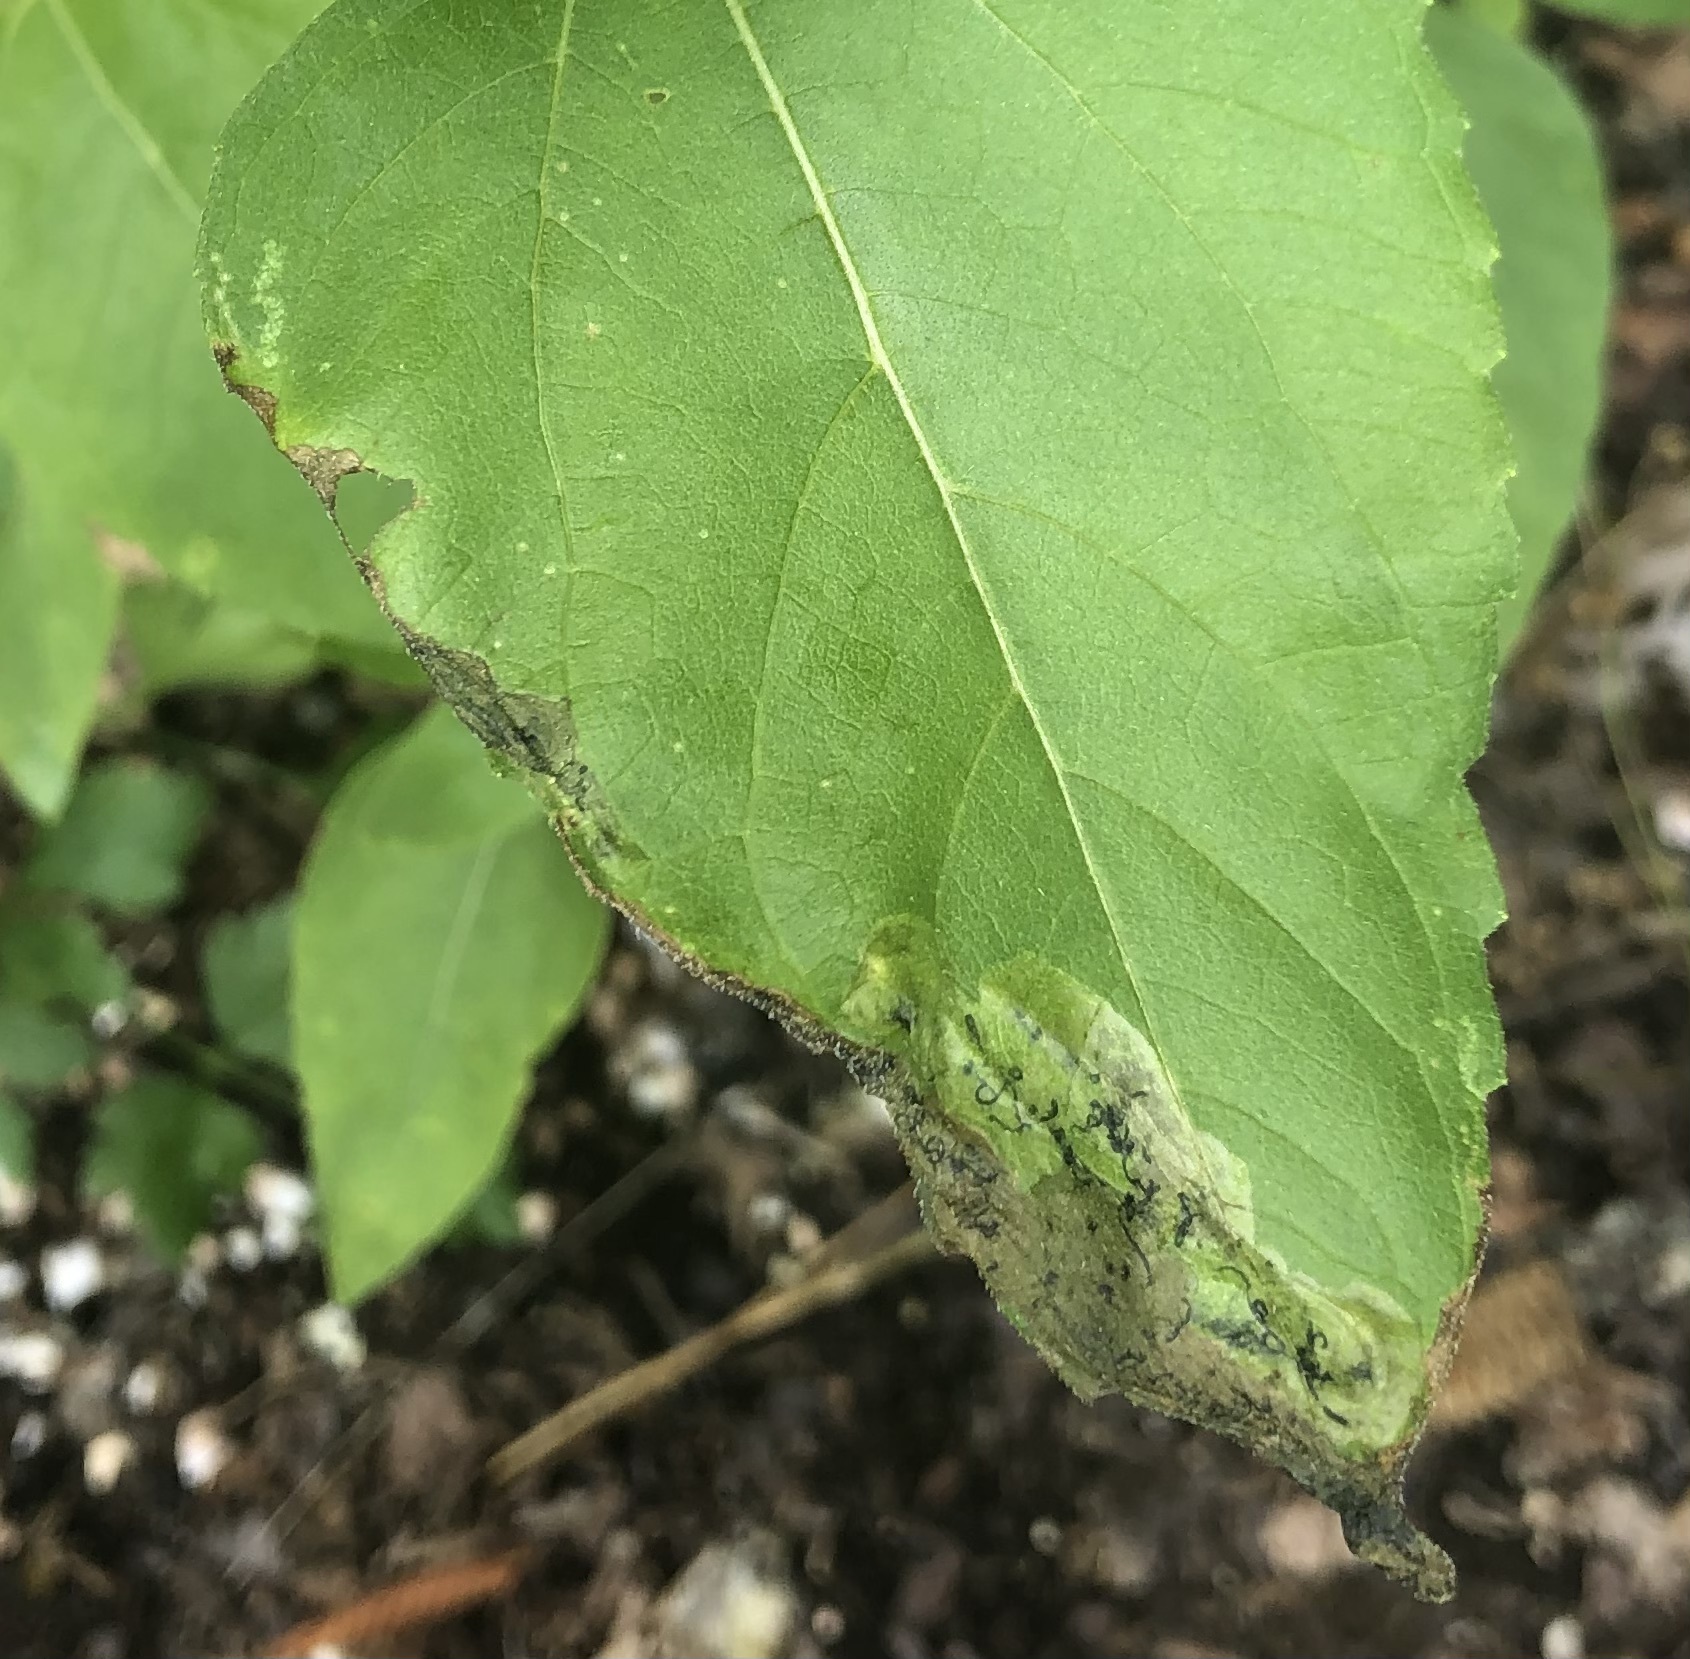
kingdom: Animalia
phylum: Arthropoda
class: Insecta
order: Diptera
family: Agromyzidae
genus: Agromyza
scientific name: Agromyza ambrosivora
